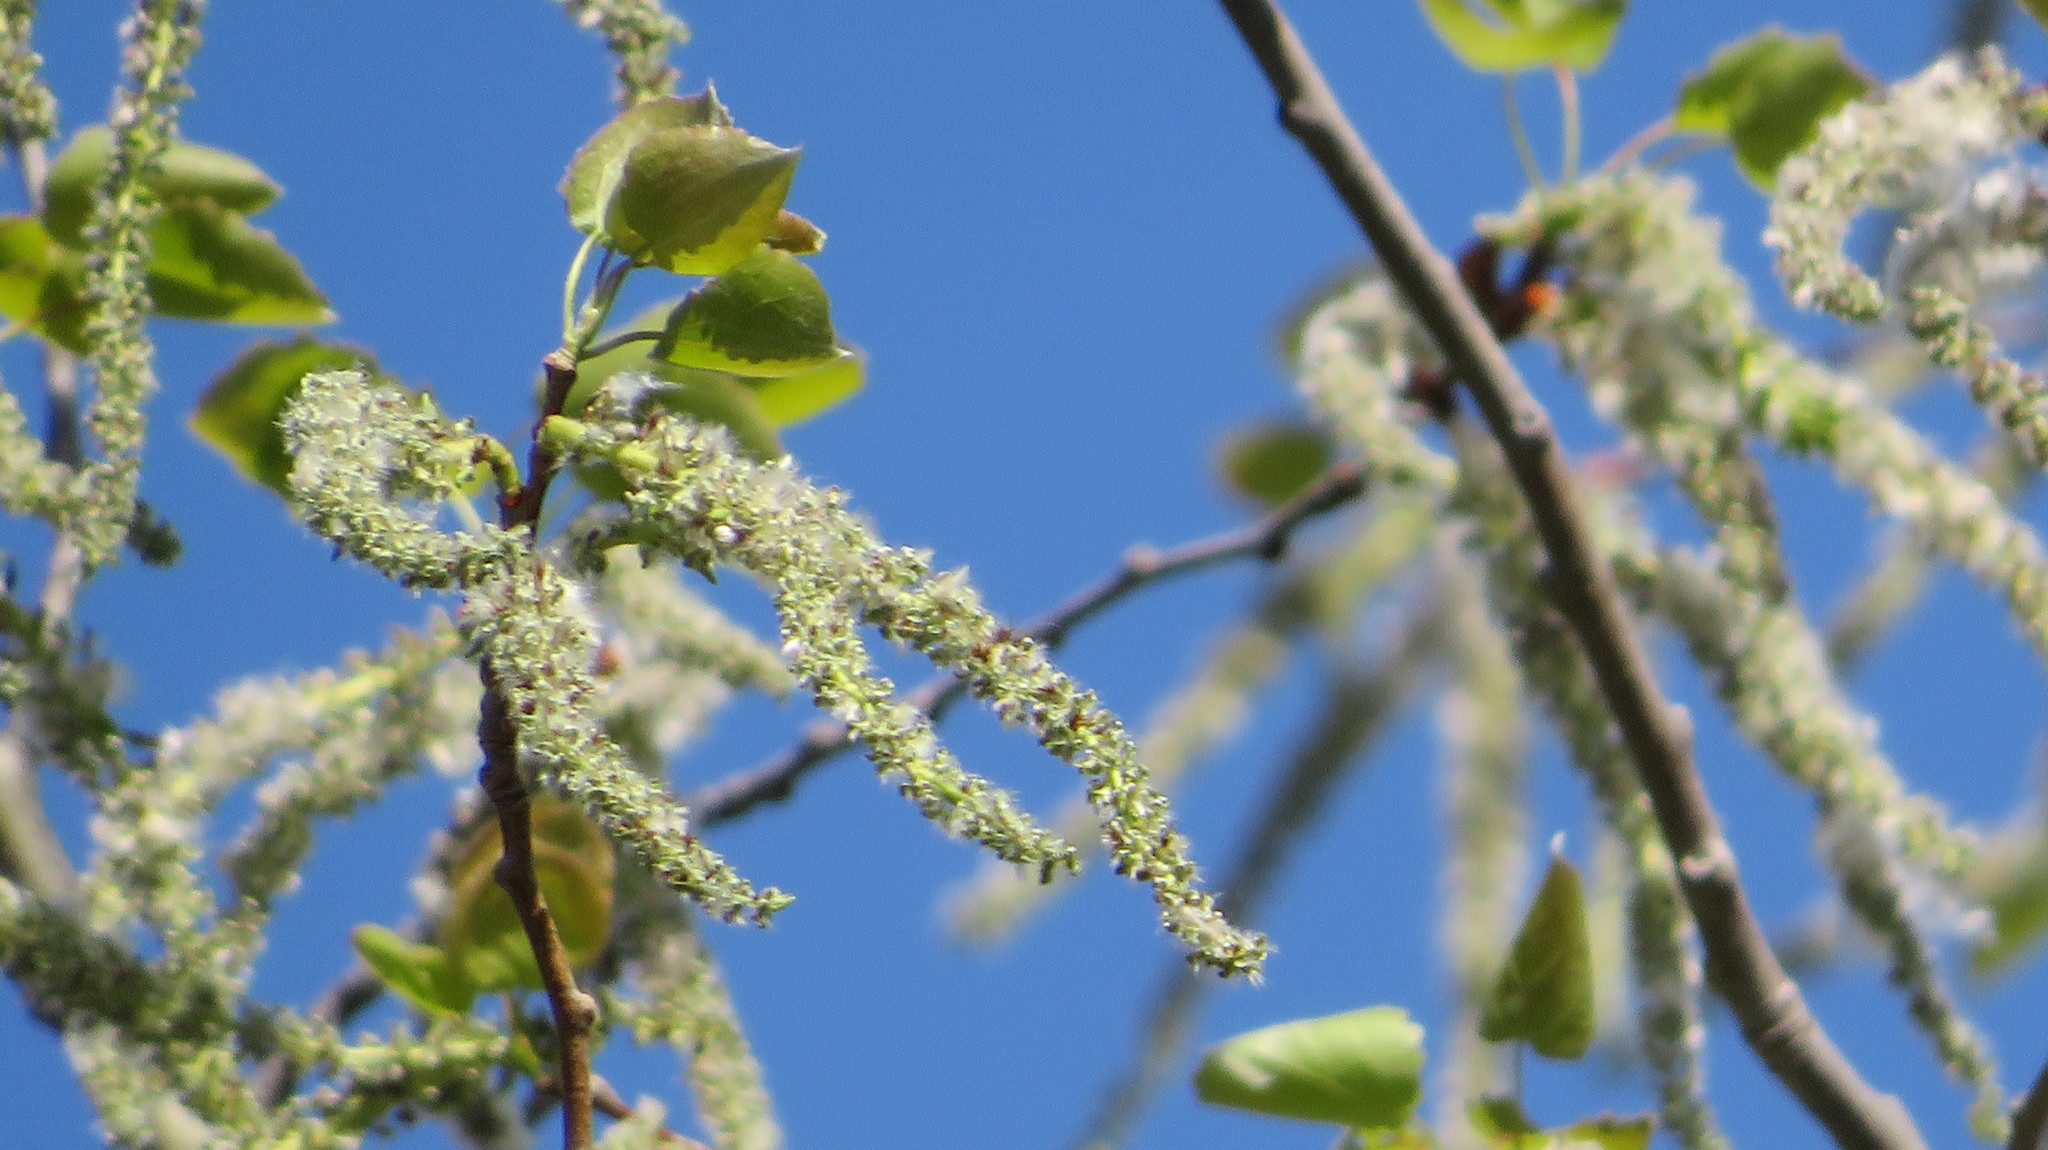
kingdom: Plantae
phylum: Tracheophyta
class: Magnoliopsida
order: Malpighiales
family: Salicaceae
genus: Populus
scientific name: Populus tremula
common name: European aspen
